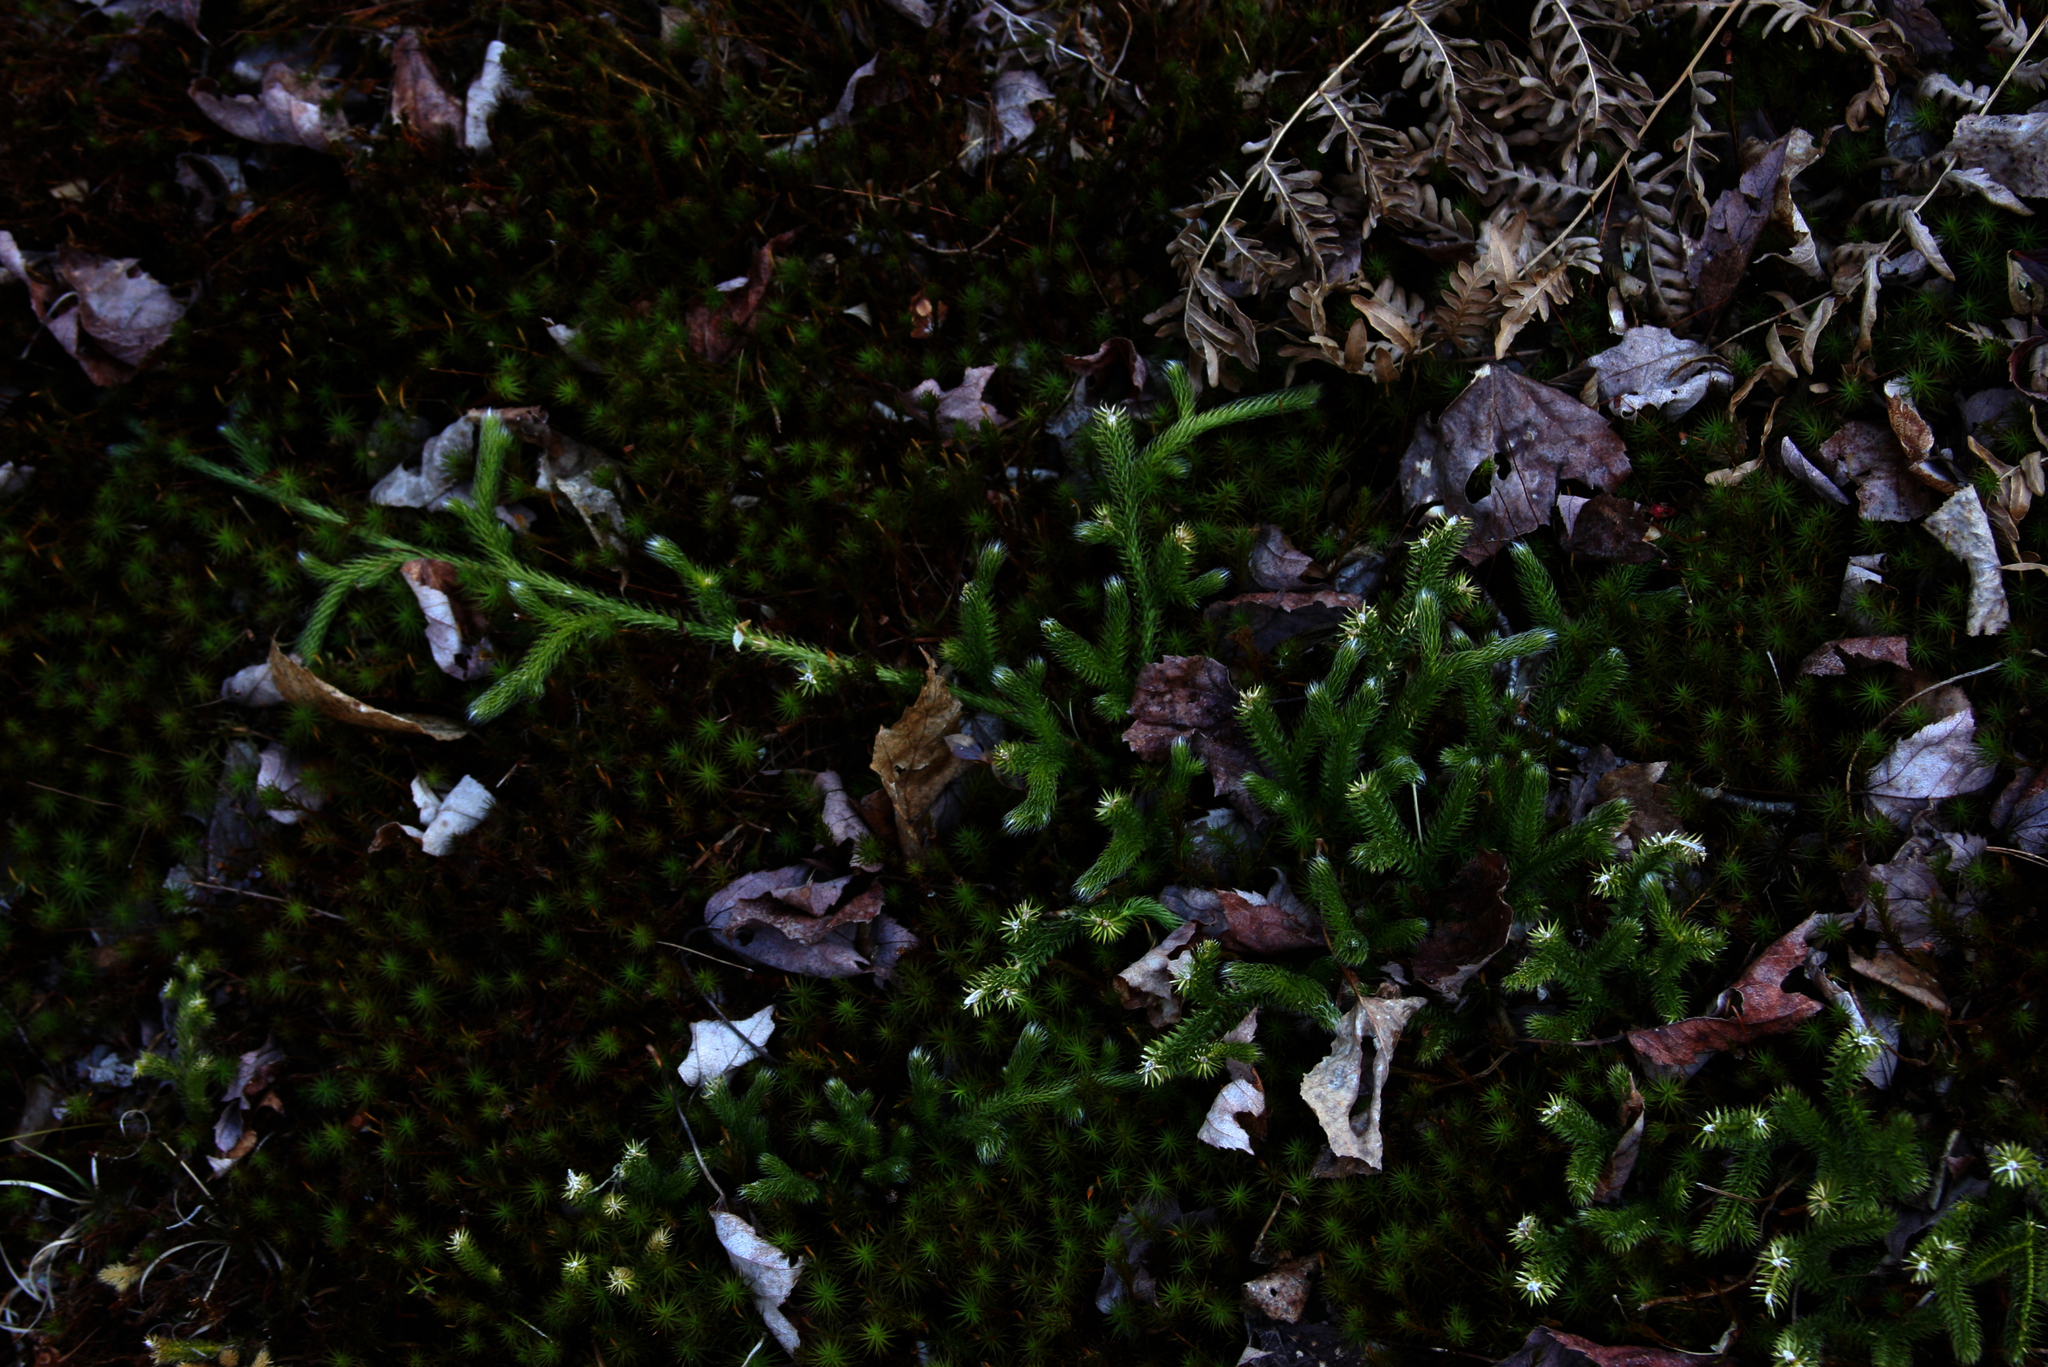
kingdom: Plantae
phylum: Tracheophyta
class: Lycopodiopsida
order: Lycopodiales
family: Lycopodiaceae
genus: Lycopodium
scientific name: Lycopodium clavatum
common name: Stag's-horn clubmoss
